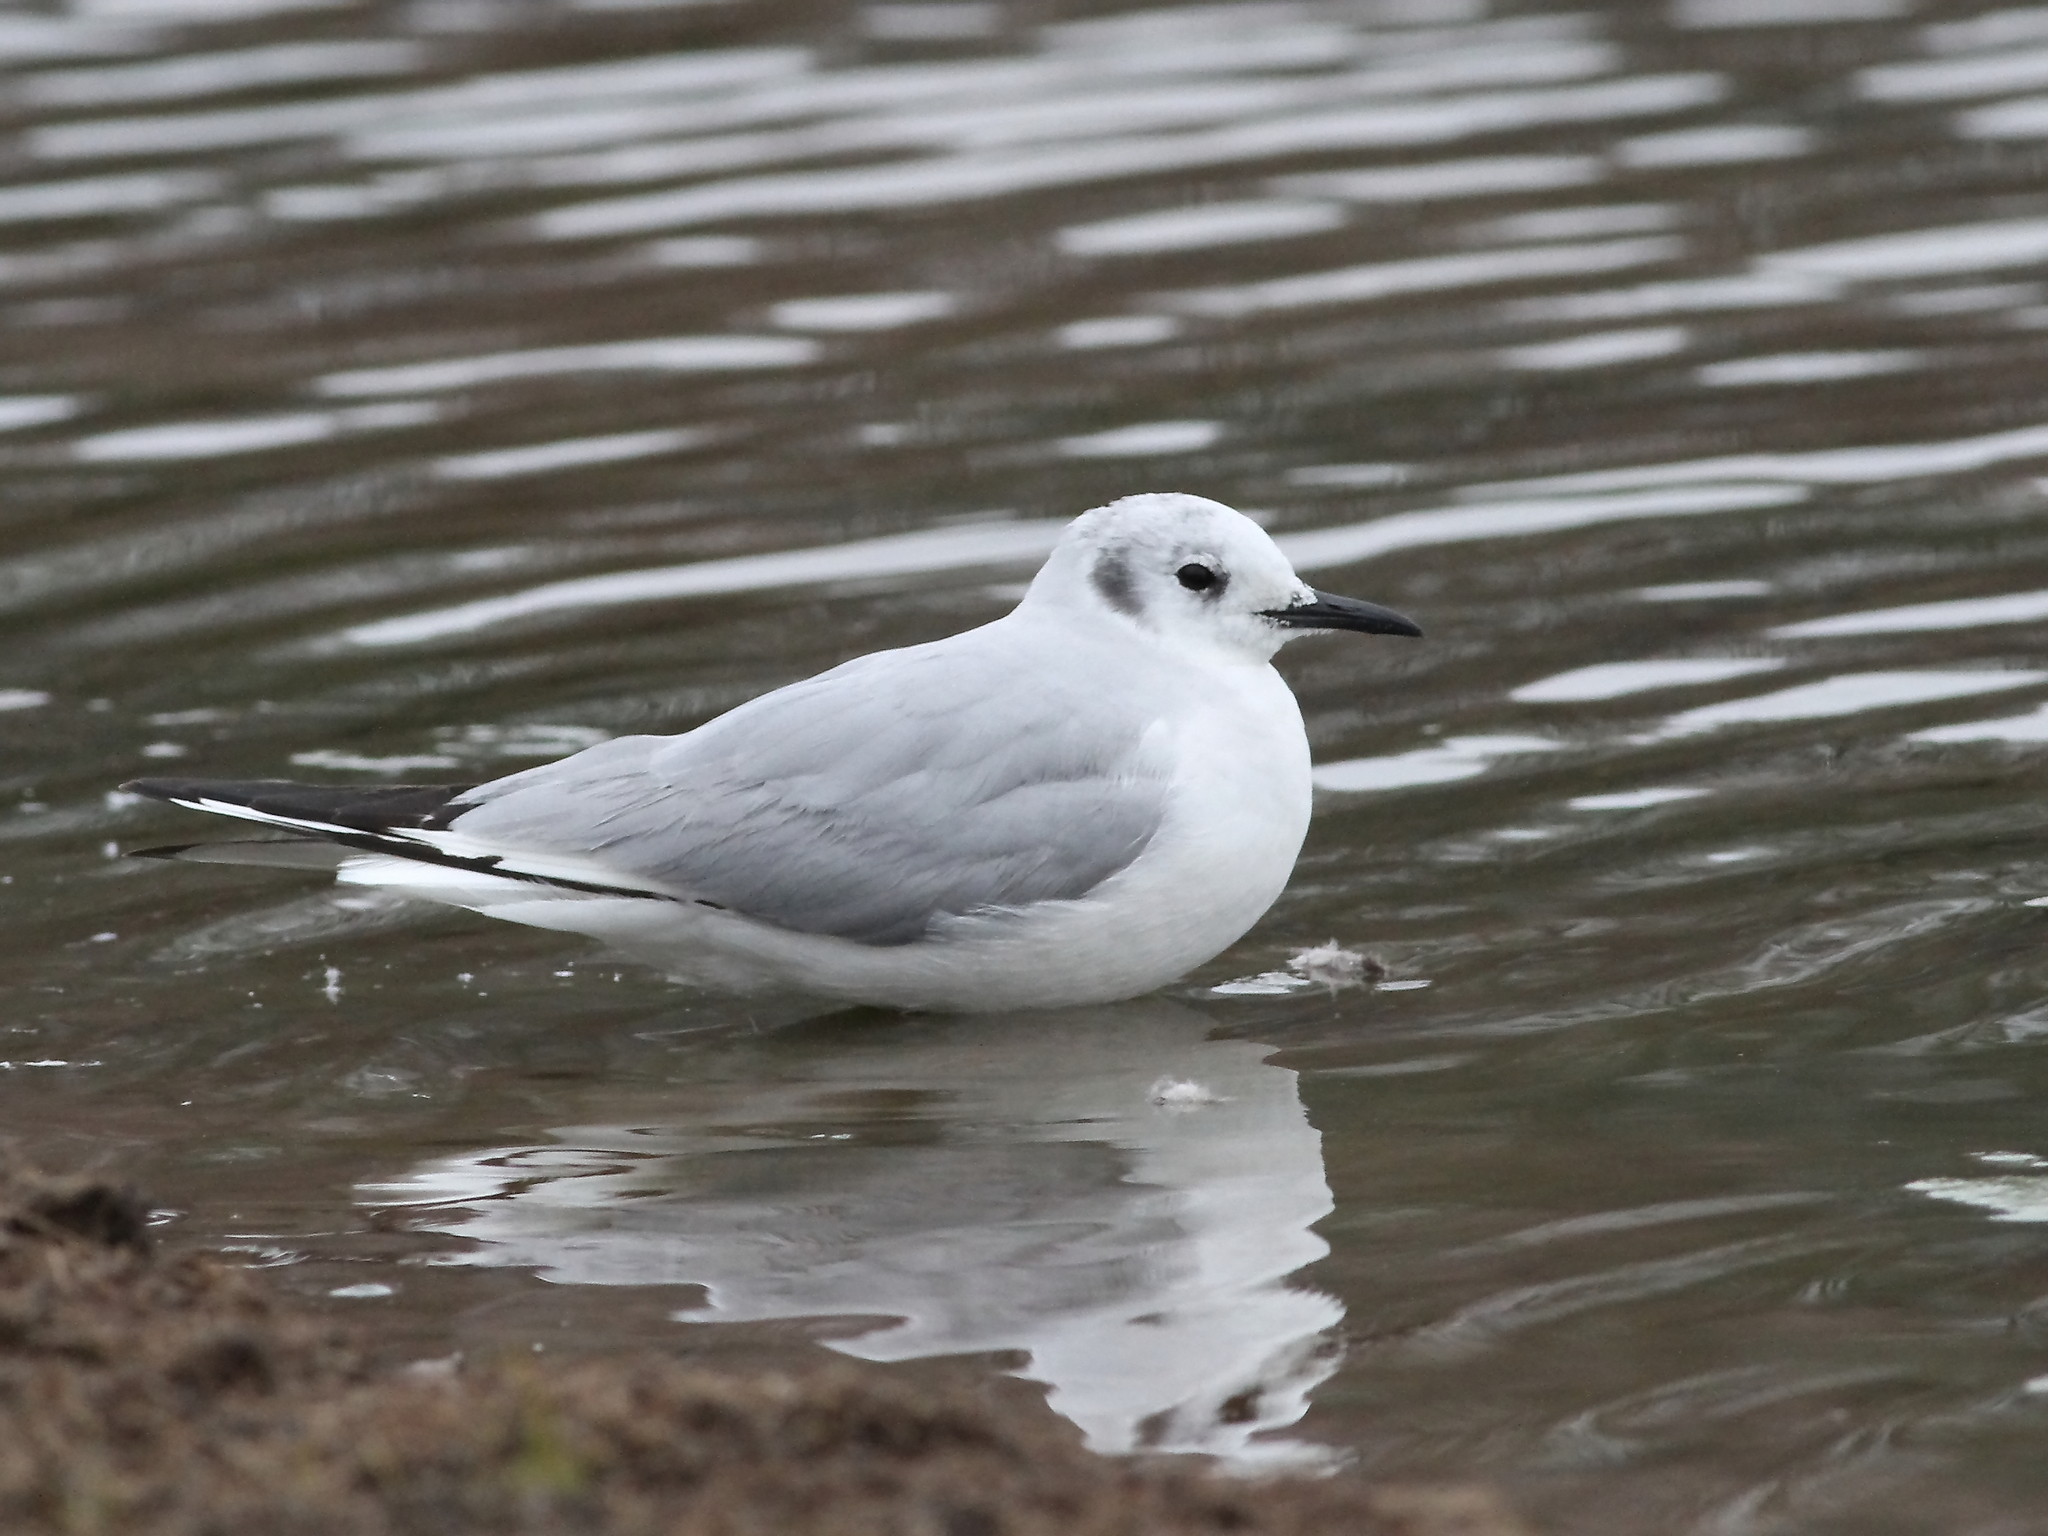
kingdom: Animalia
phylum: Chordata
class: Aves
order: Charadriiformes
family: Laridae
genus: Chroicocephalus
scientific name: Chroicocephalus philadelphia
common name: Bonaparte's gull
